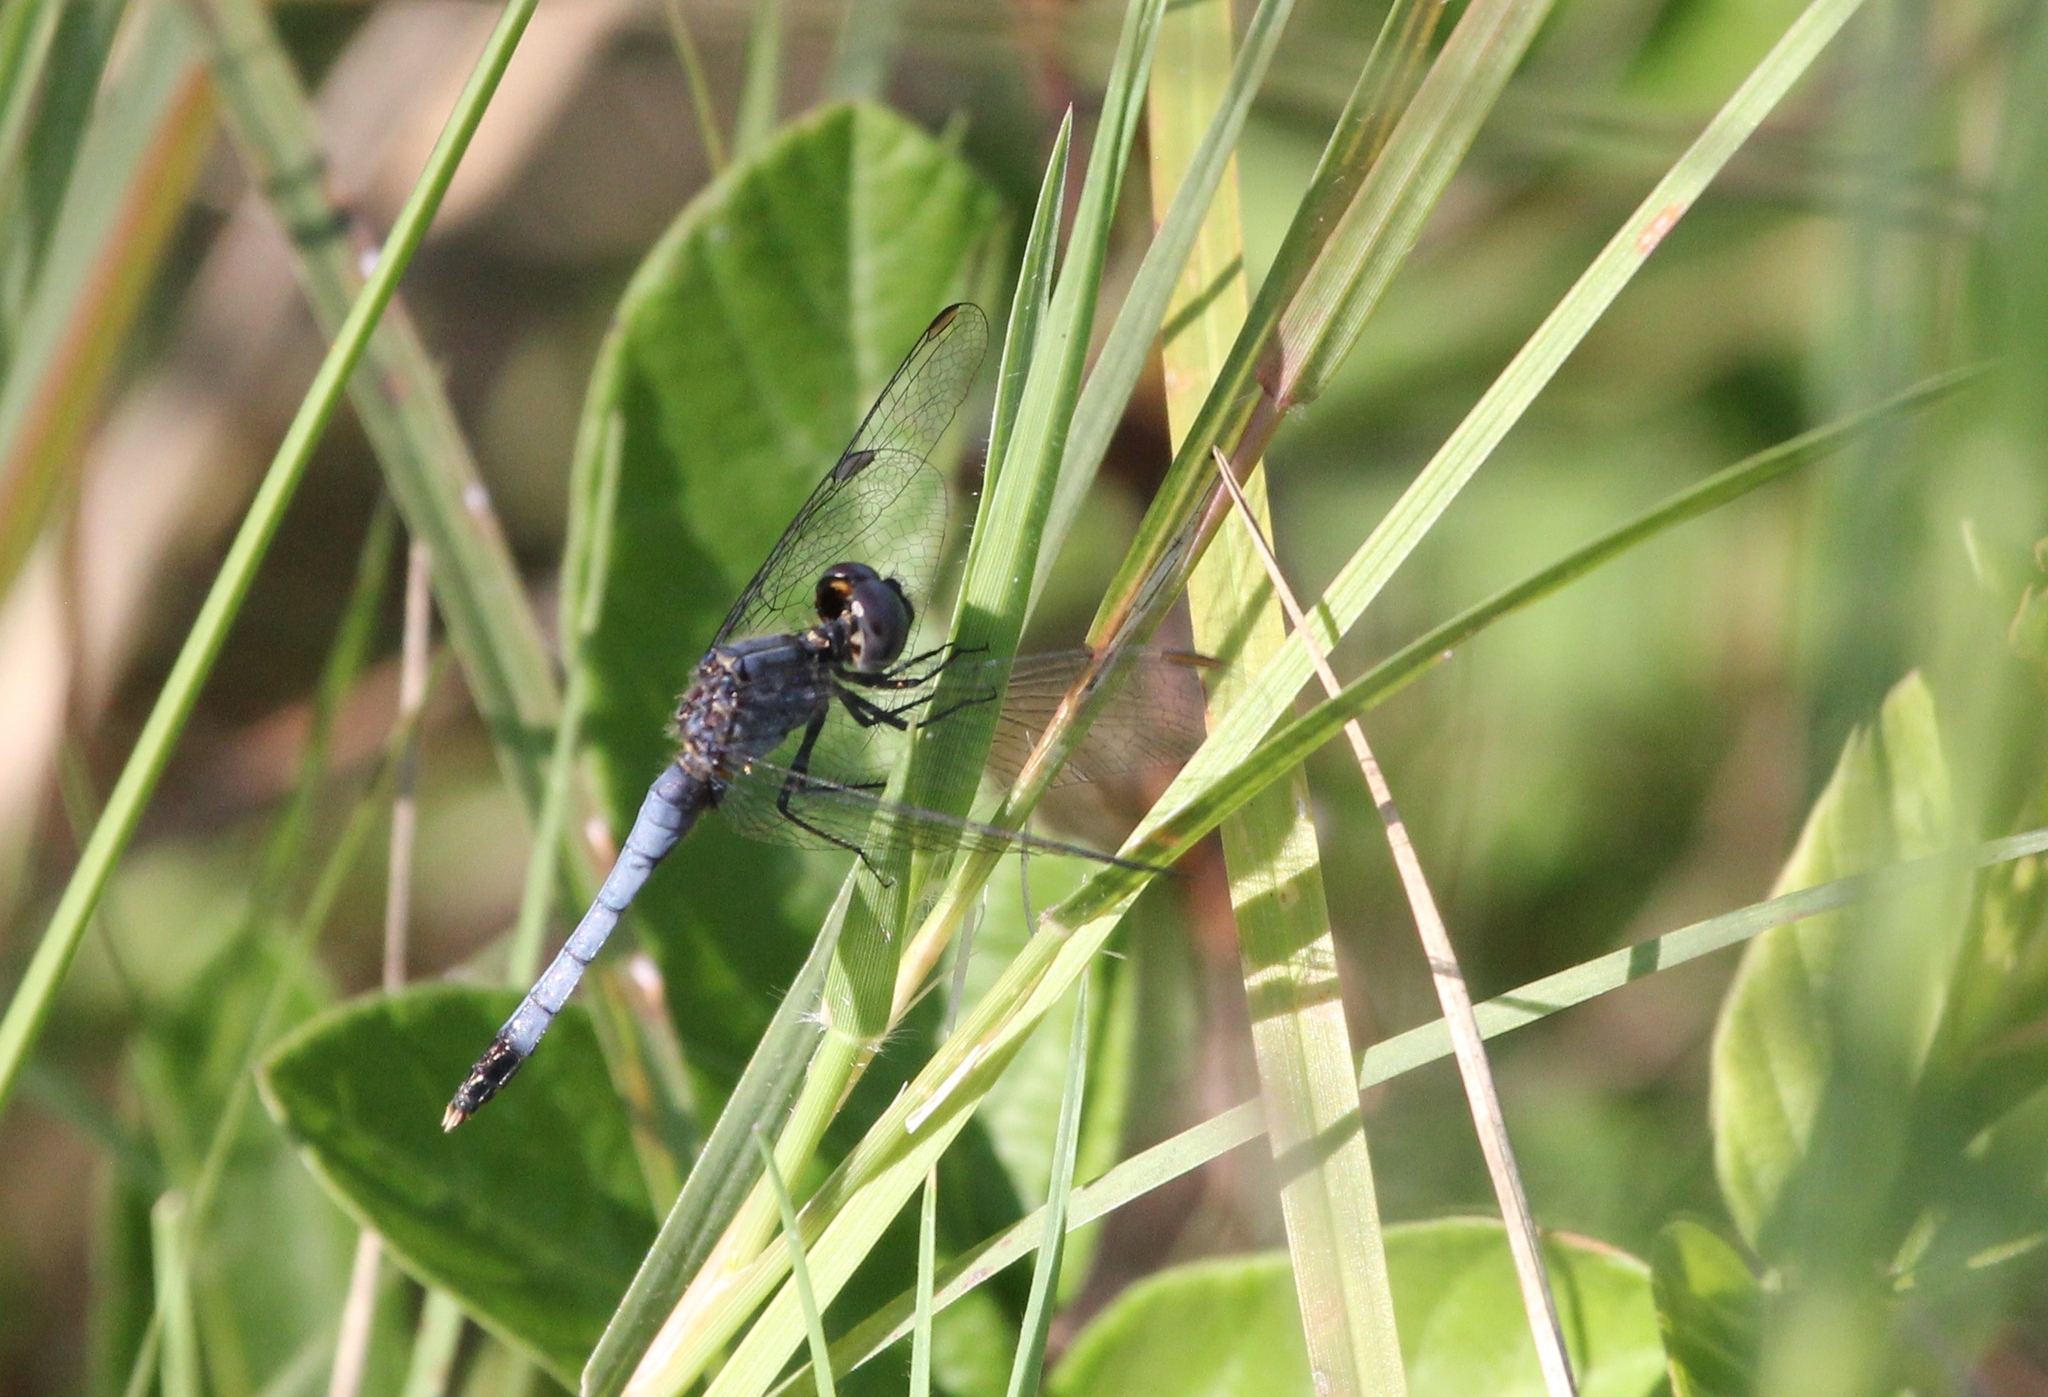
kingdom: Animalia
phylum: Arthropoda
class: Insecta
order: Odonata
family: Libellulidae
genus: Erythrodiplax
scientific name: Erythrodiplax minuscula
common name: Little blue dragonlet
